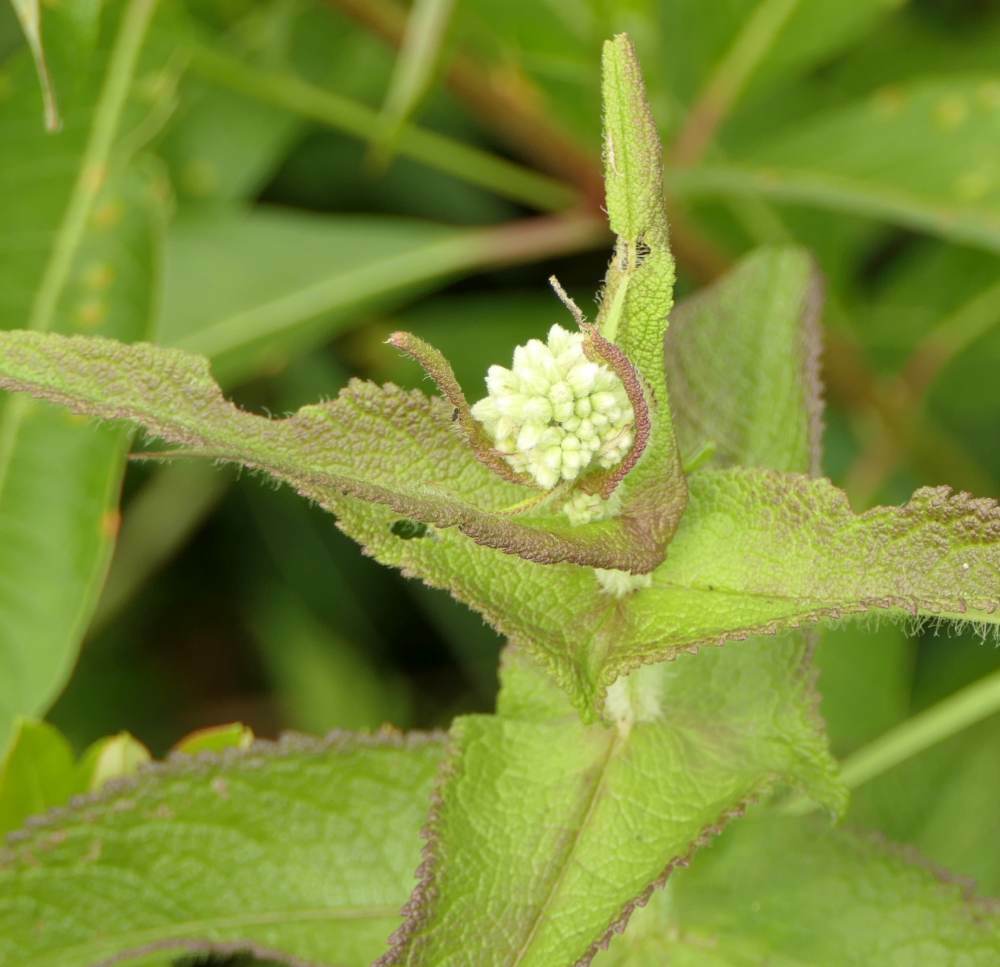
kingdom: Plantae
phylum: Tracheophyta
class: Magnoliopsida
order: Asterales
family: Asteraceae
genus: Eupatorium
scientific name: Eupatorium perfoliatum
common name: Boneset
